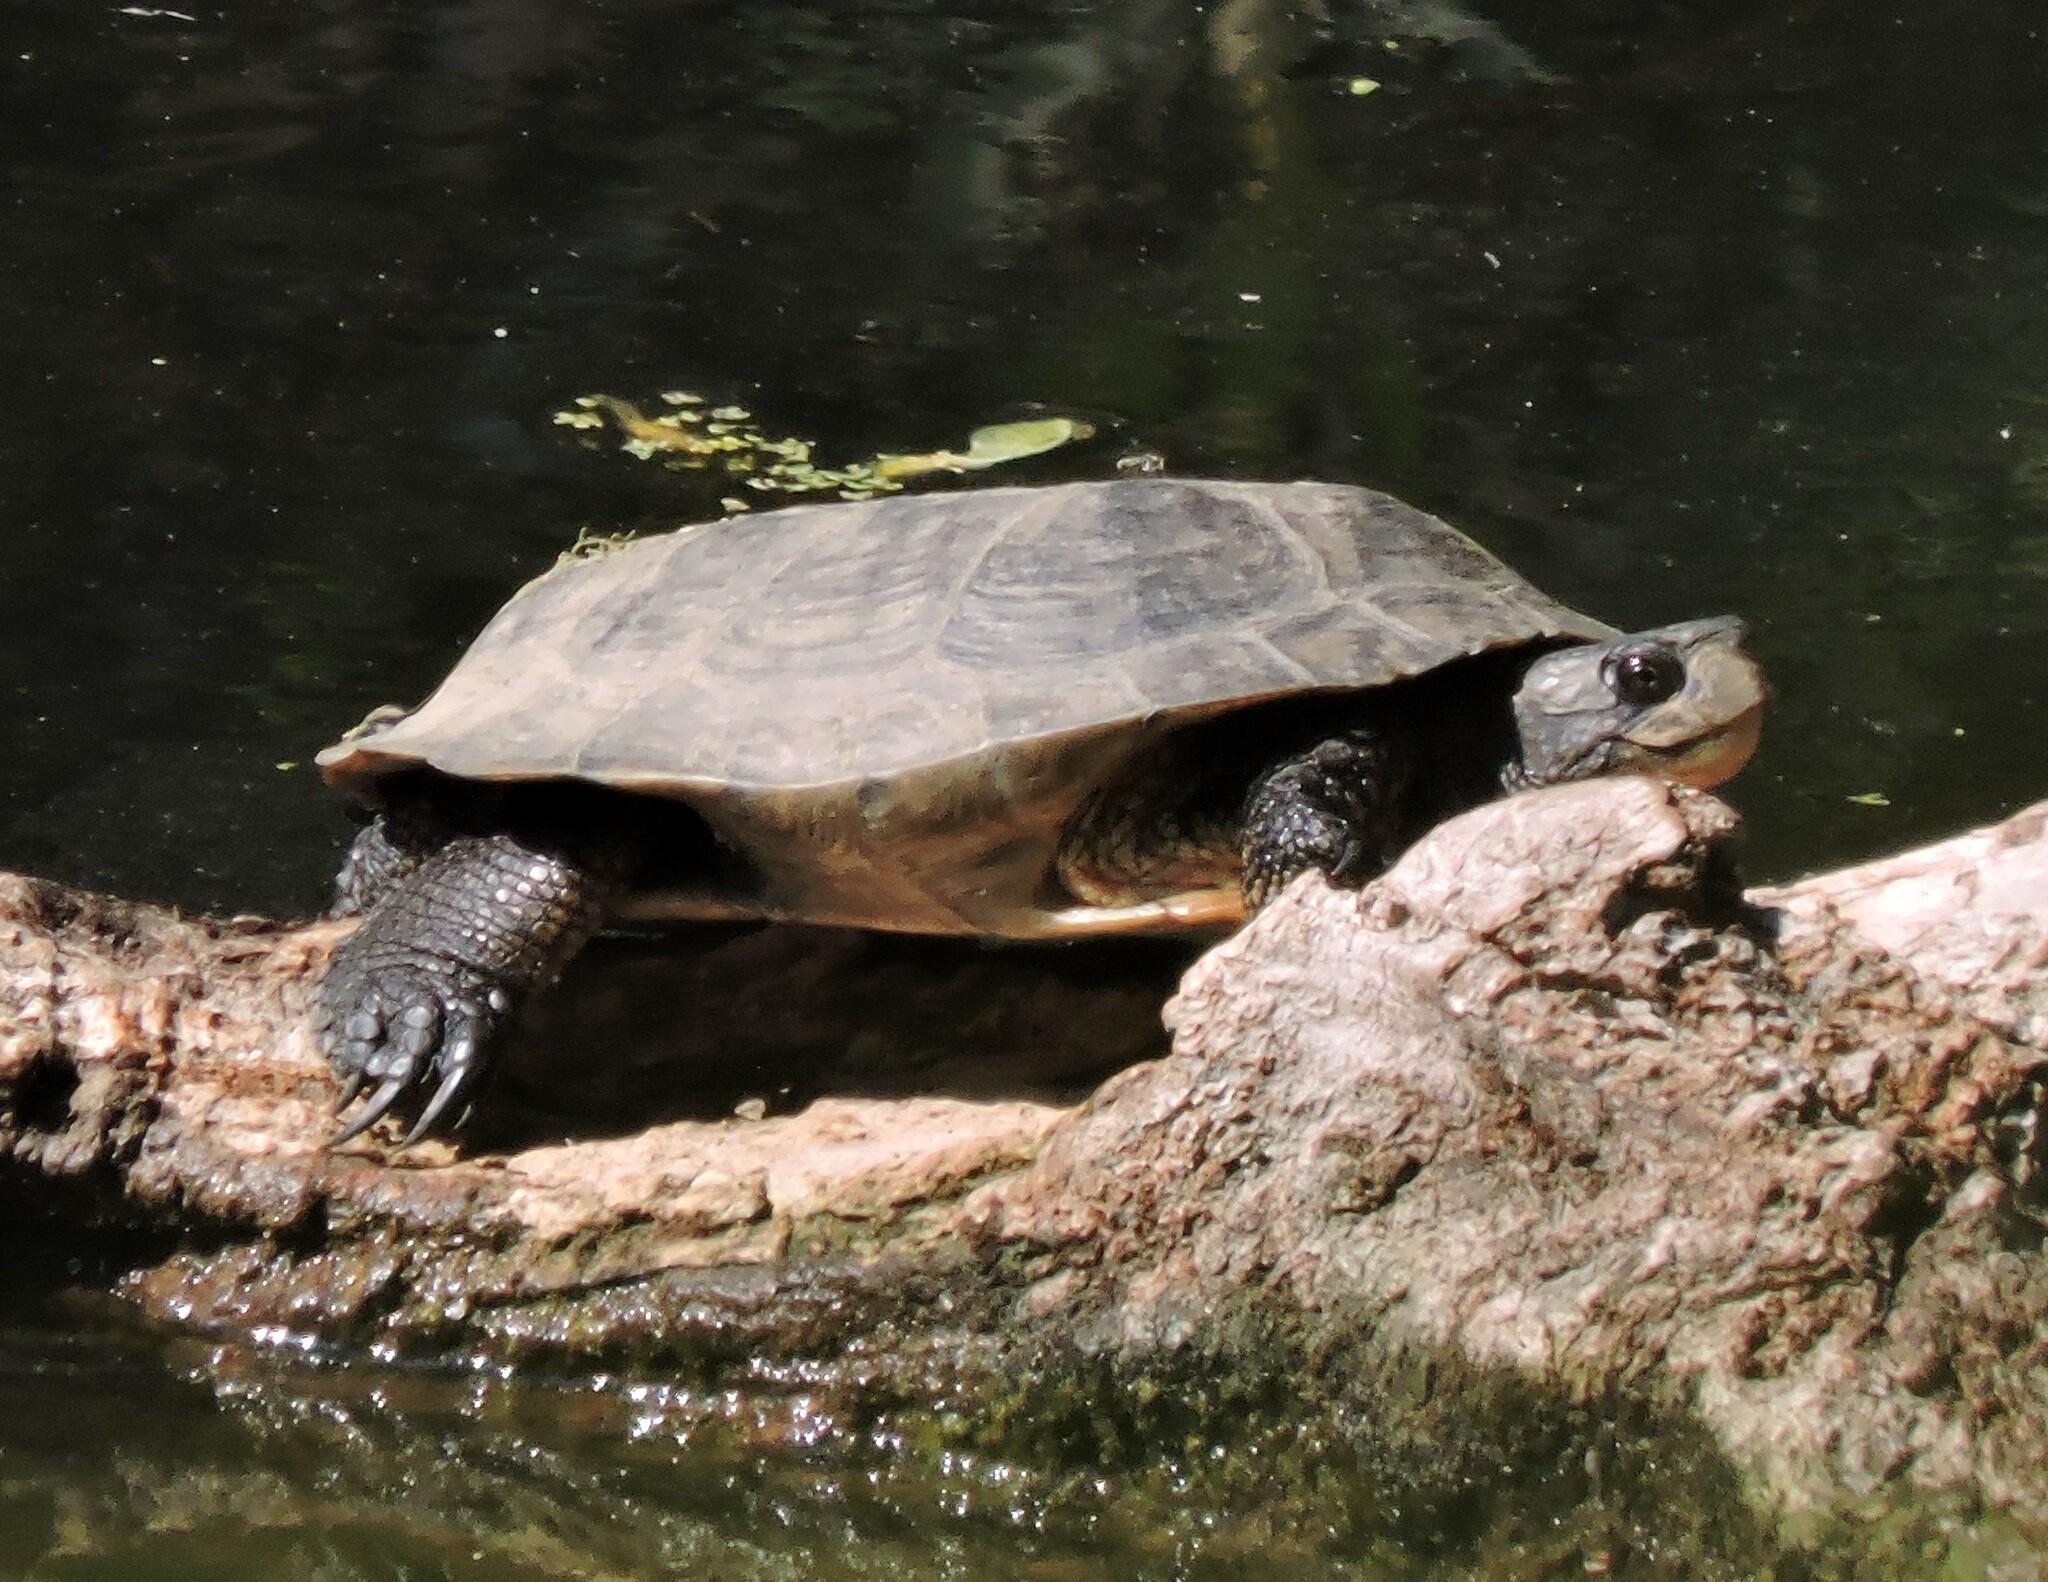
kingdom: Animalia
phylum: Chordata
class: Testudines
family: Emydidae
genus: Actinemys
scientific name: Actinemys marmorata
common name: Western pond turtle
